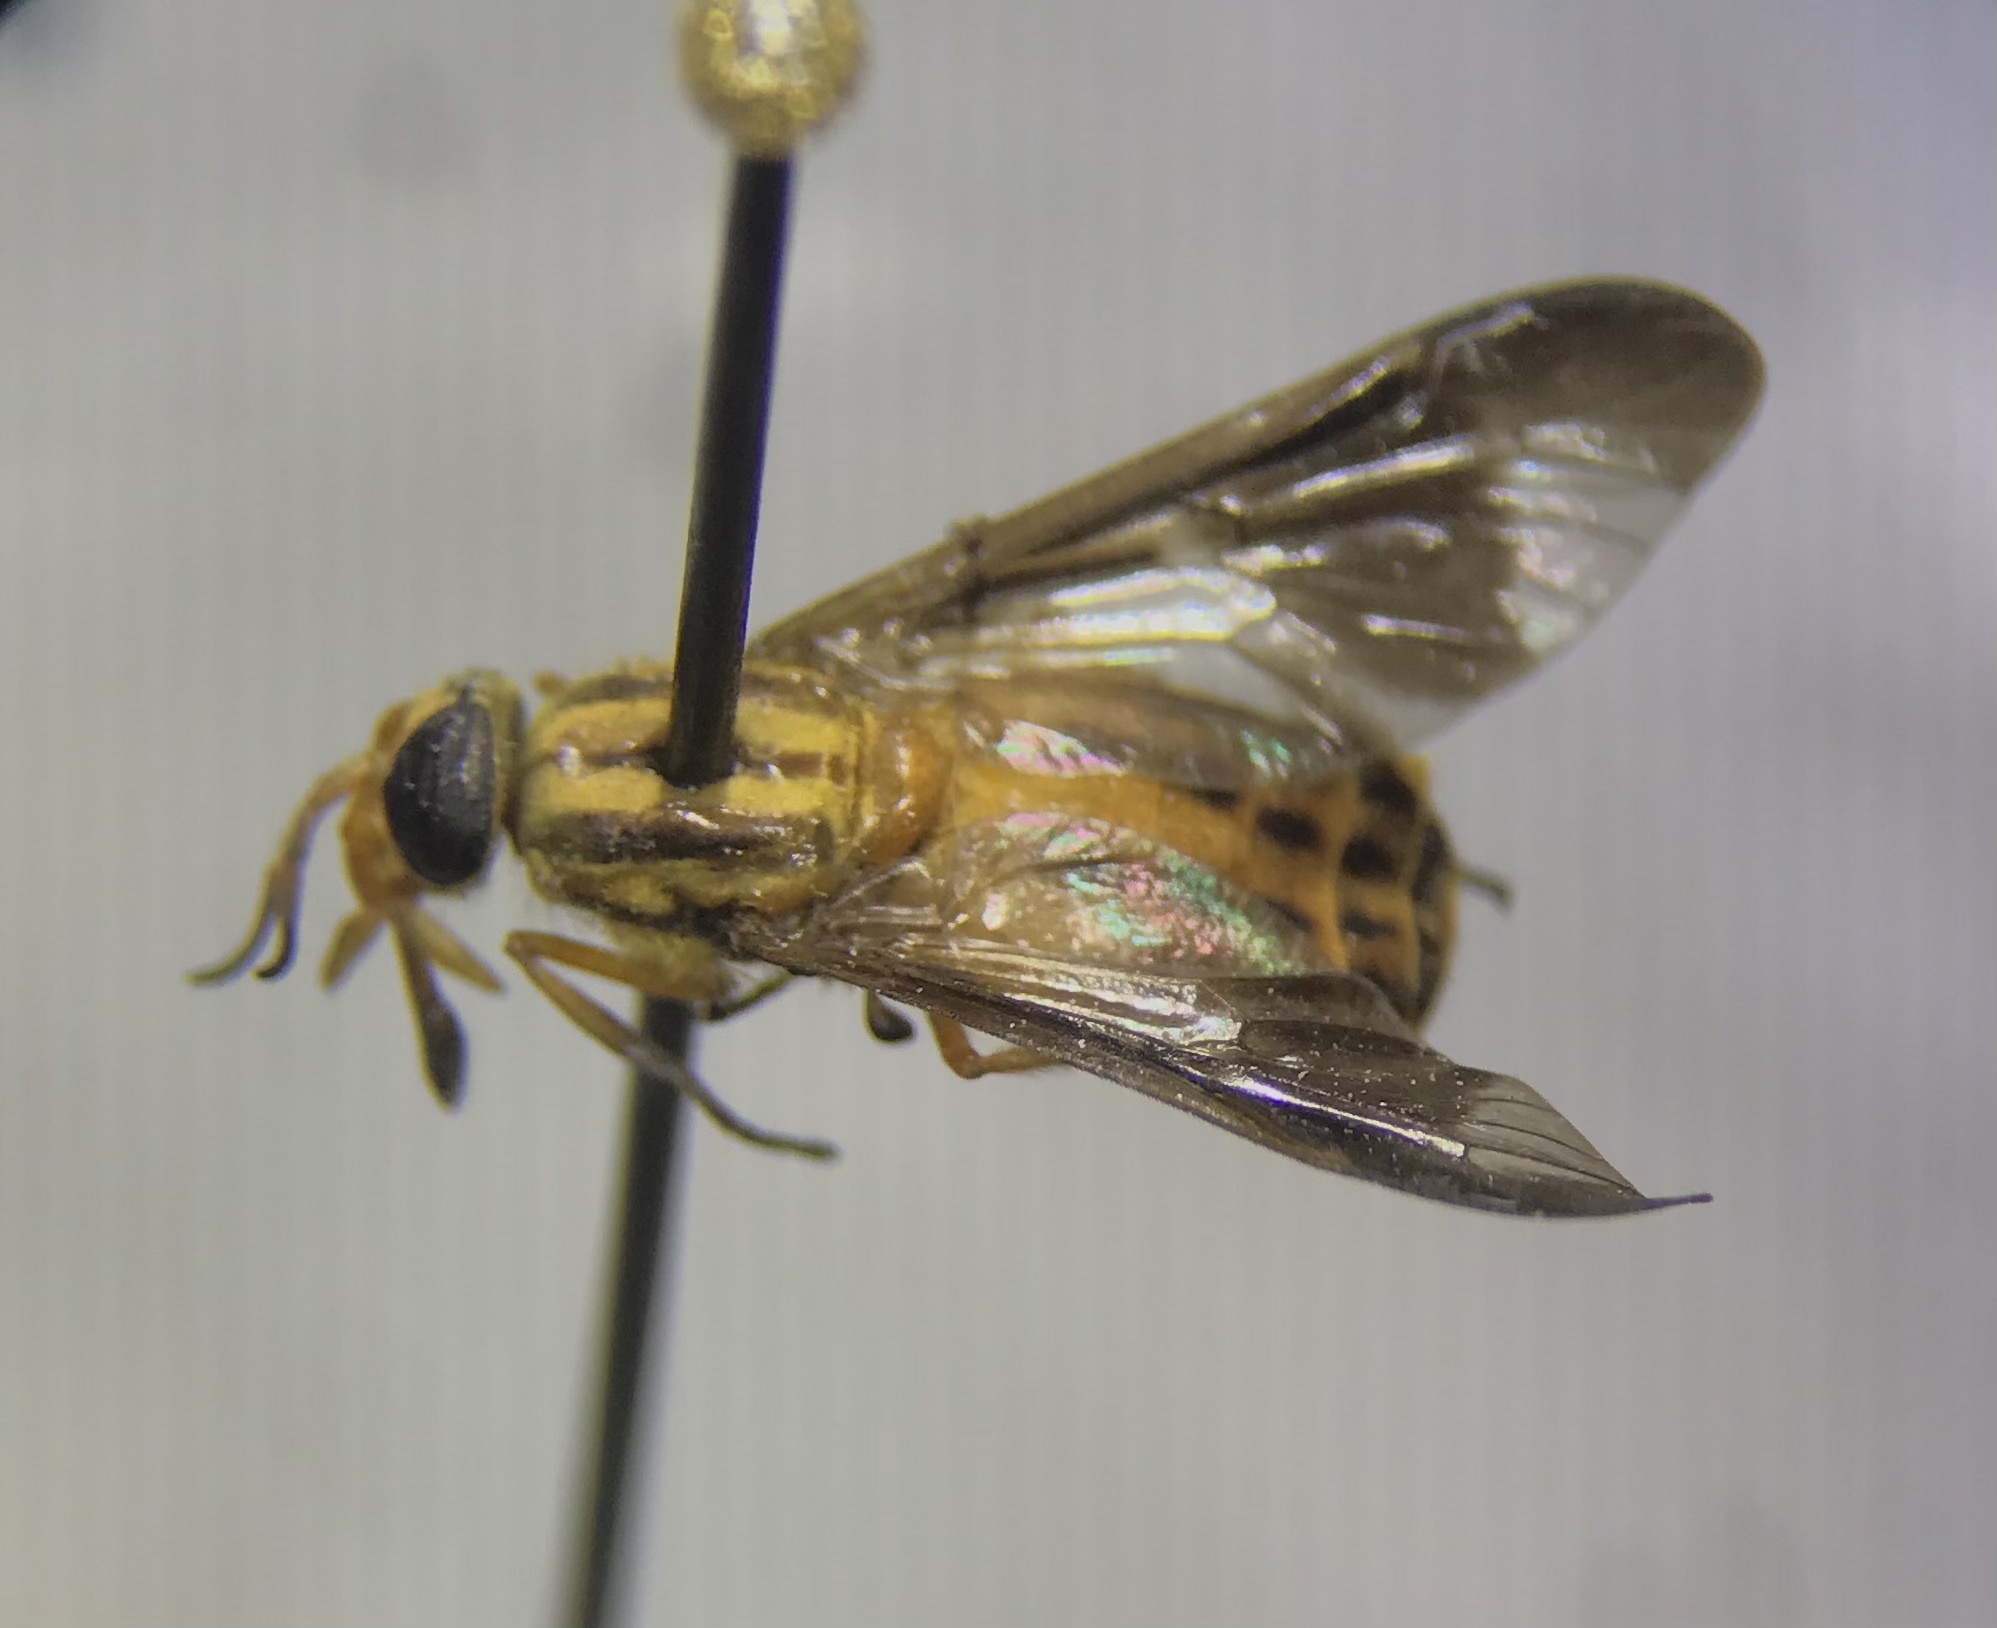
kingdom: Animalia
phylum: Arthropoda
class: Insecta
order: Diptera
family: Tabanidae
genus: Chrysops
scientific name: Chrysops vittatus
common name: Striped deer fly
